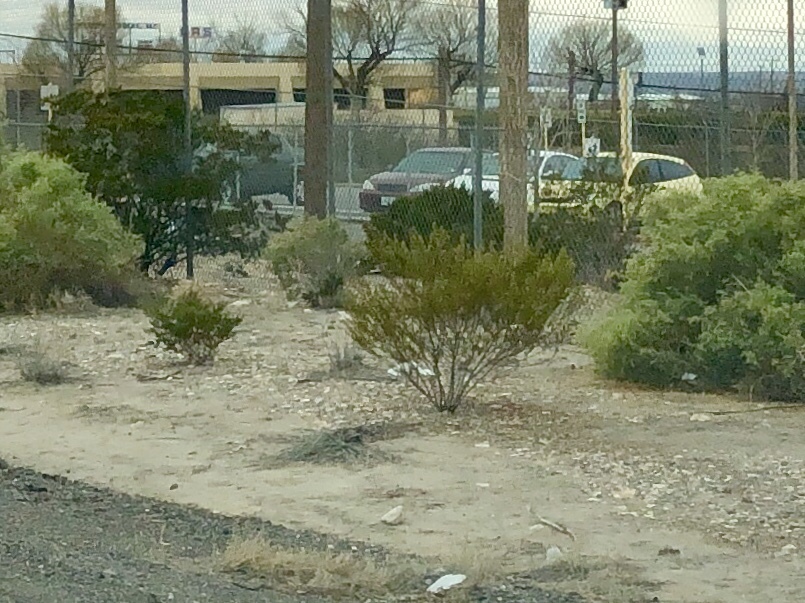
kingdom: Plantae
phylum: Tracheophyta
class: Magnoliopsida
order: Zygophyllales
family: Zygophyllaceae
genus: Larrea
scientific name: Larrea tridentata
